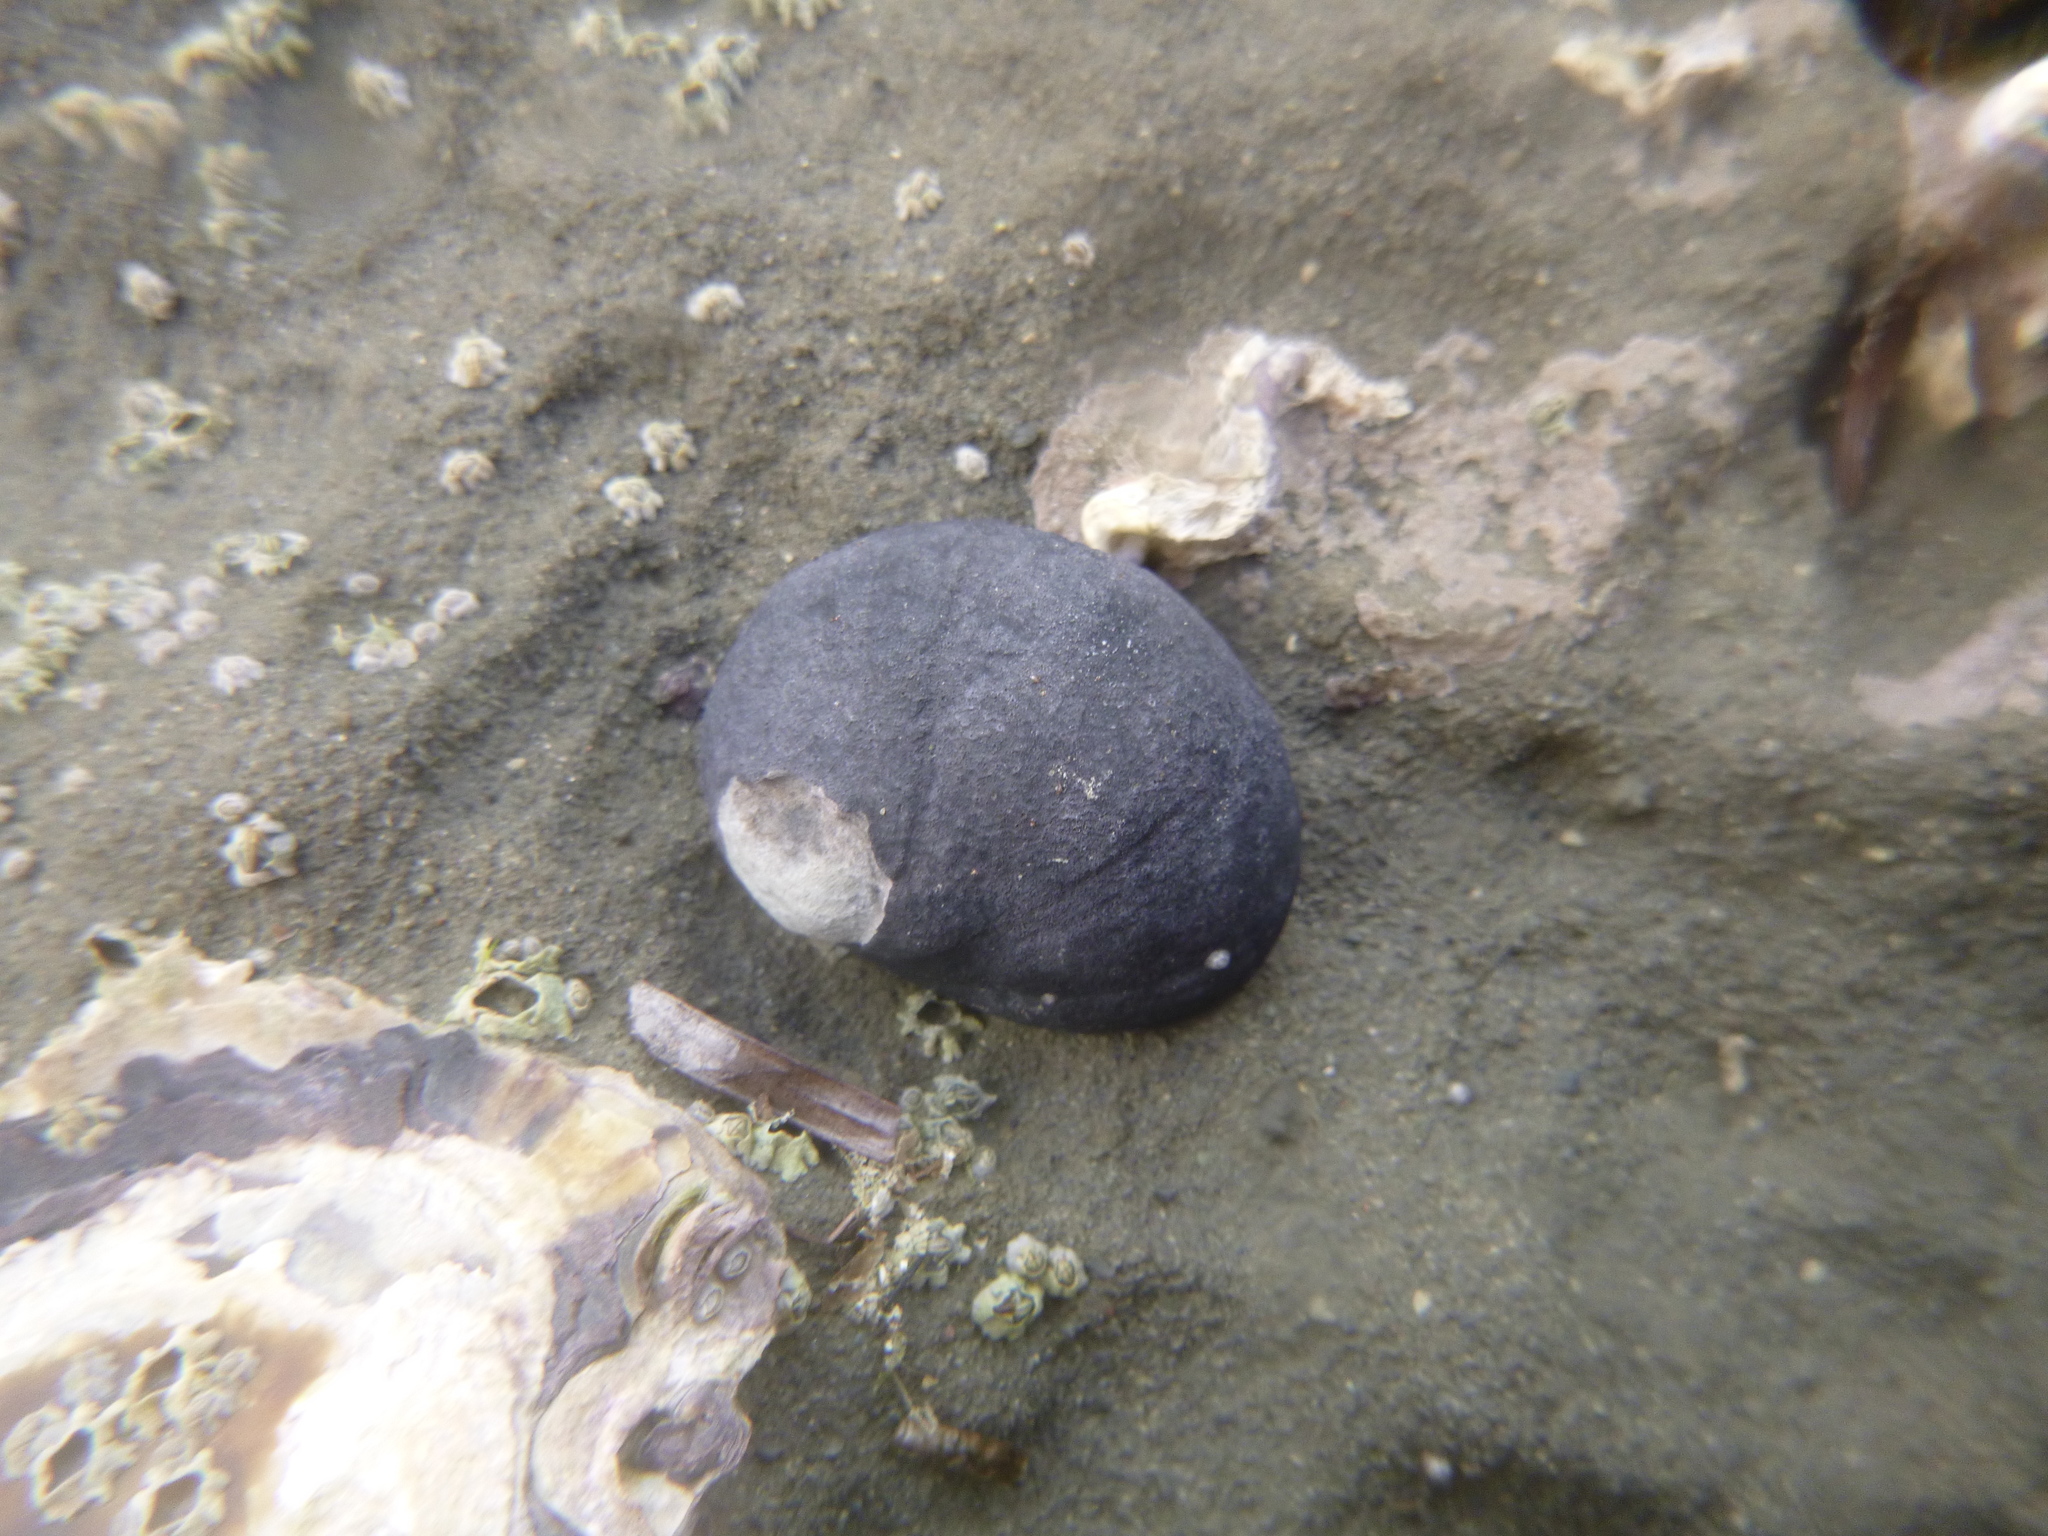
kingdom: Animalia
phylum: Mollusca
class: Gastropoda
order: Cycloneritida
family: Neritidae
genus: Nerita
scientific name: Nerita melanotragus
